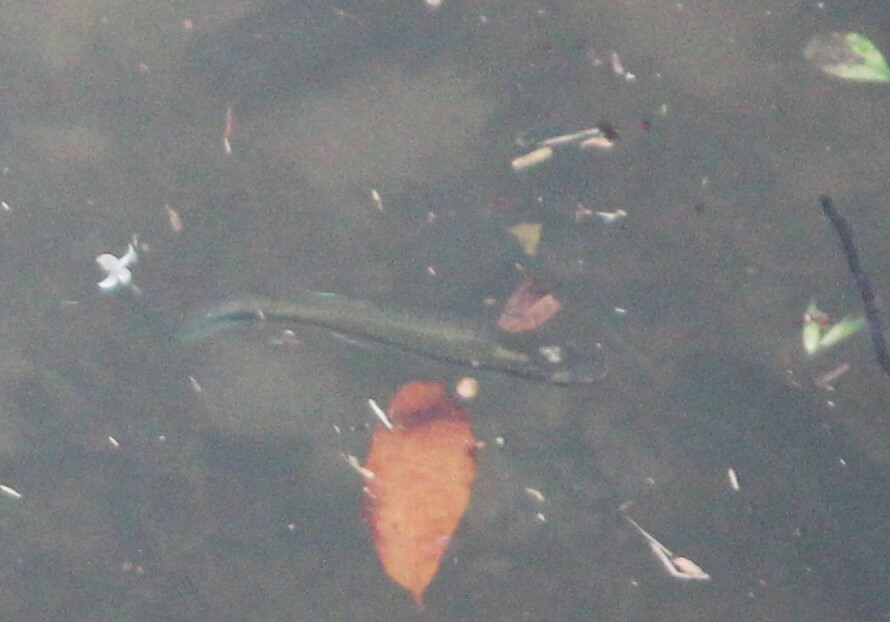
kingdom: Animalia
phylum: Chordata
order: Cyprinodontiformes
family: Fundulidae
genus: Fundulus
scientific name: Fundulus notatus
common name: Blackstripe topminnow
